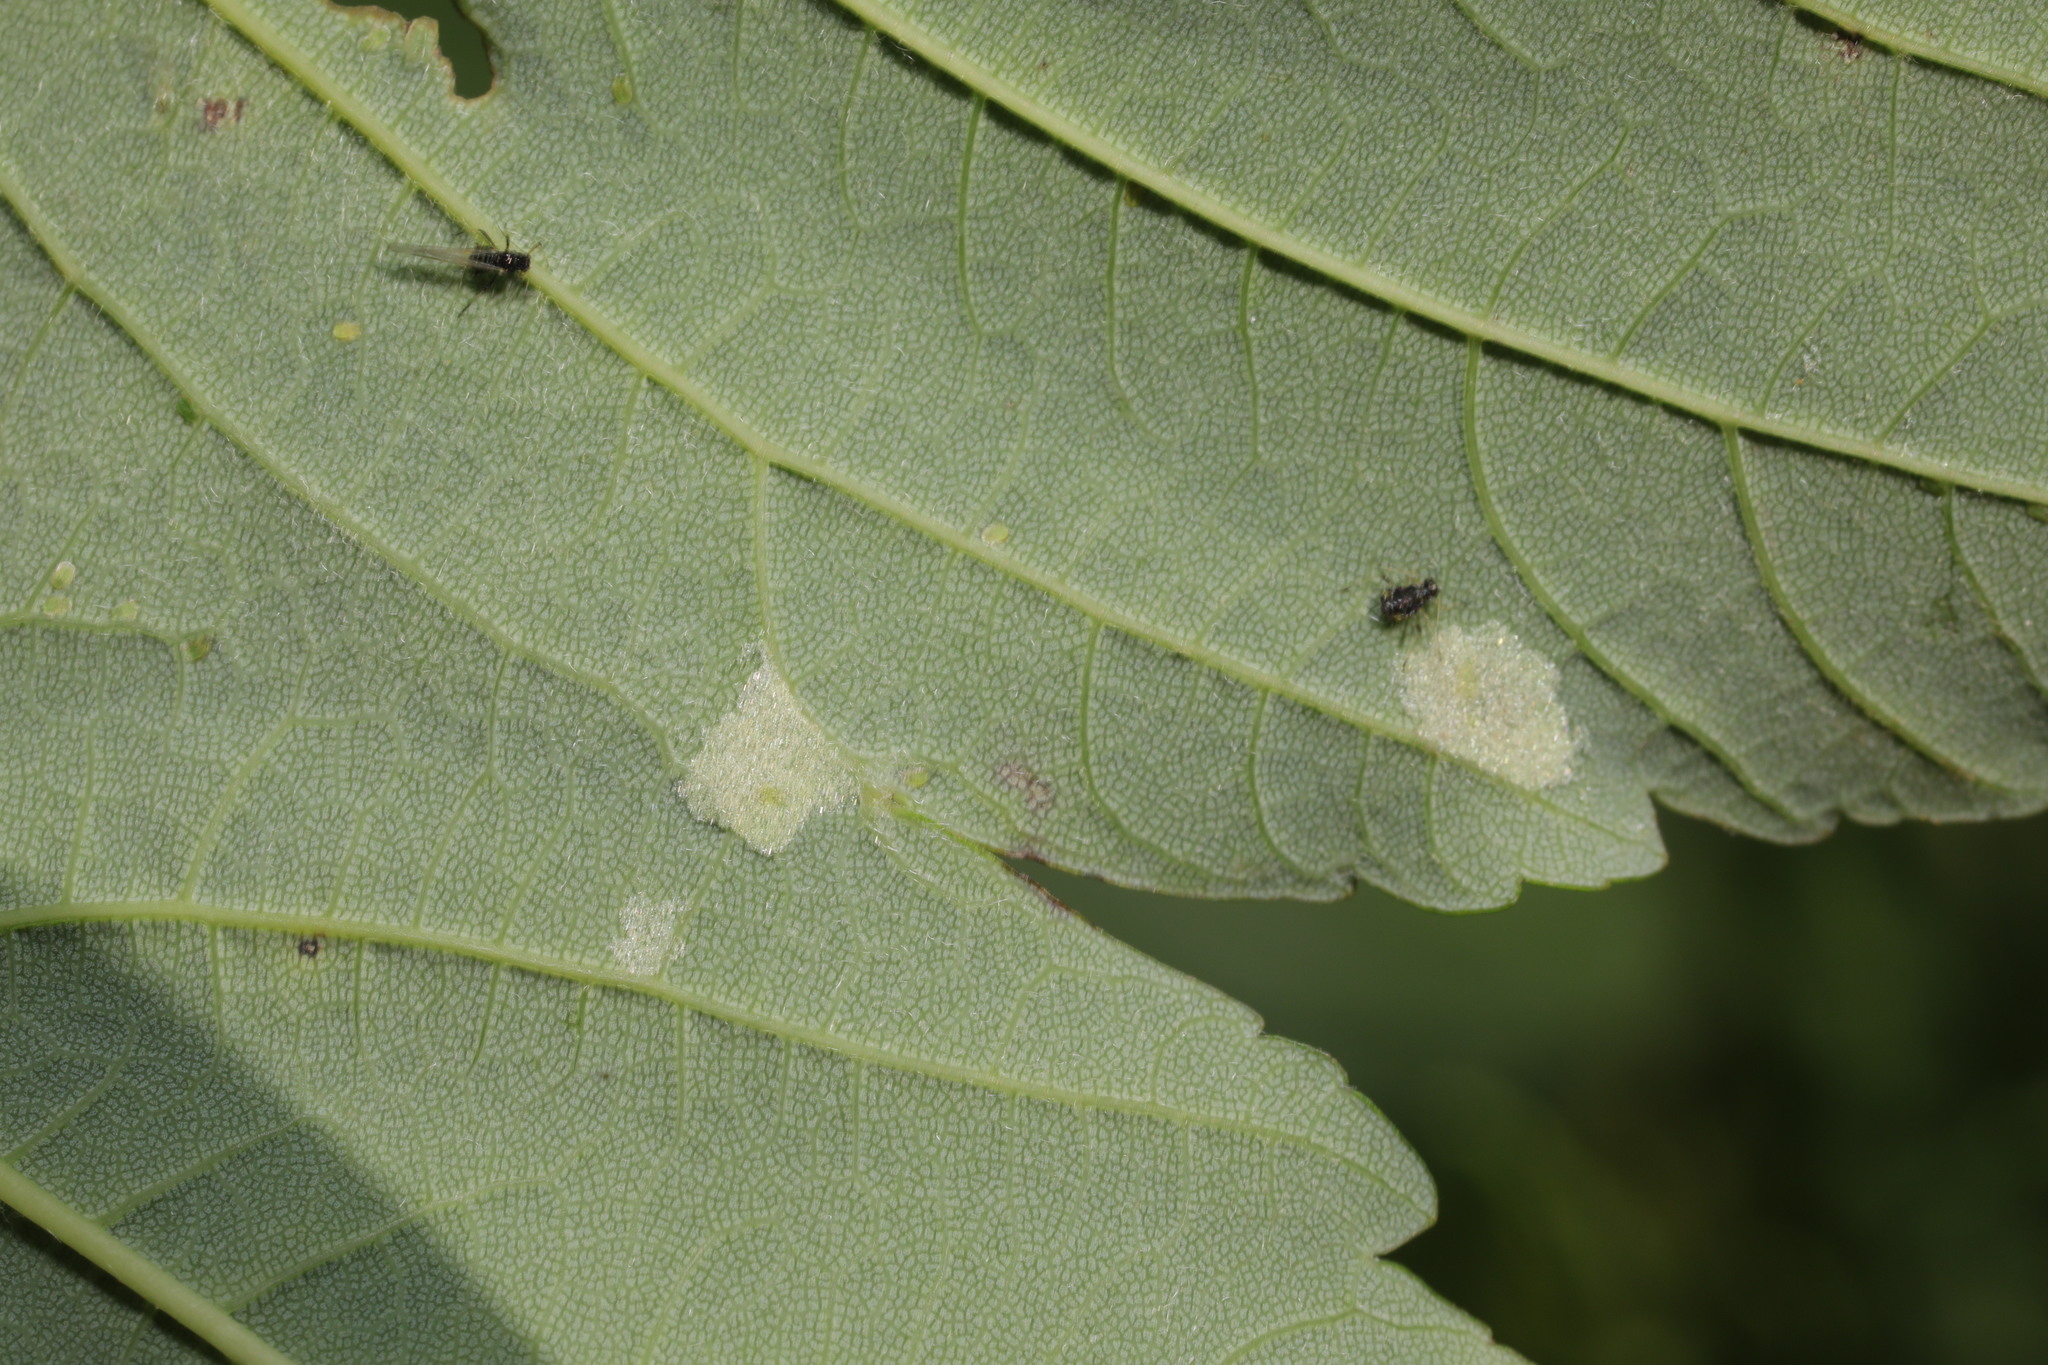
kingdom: Animalia
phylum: Arthropoda
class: Arachnida
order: Trombidiformes
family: Eriophyidae
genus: Aceria
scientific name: Aceria pseudoplatani
